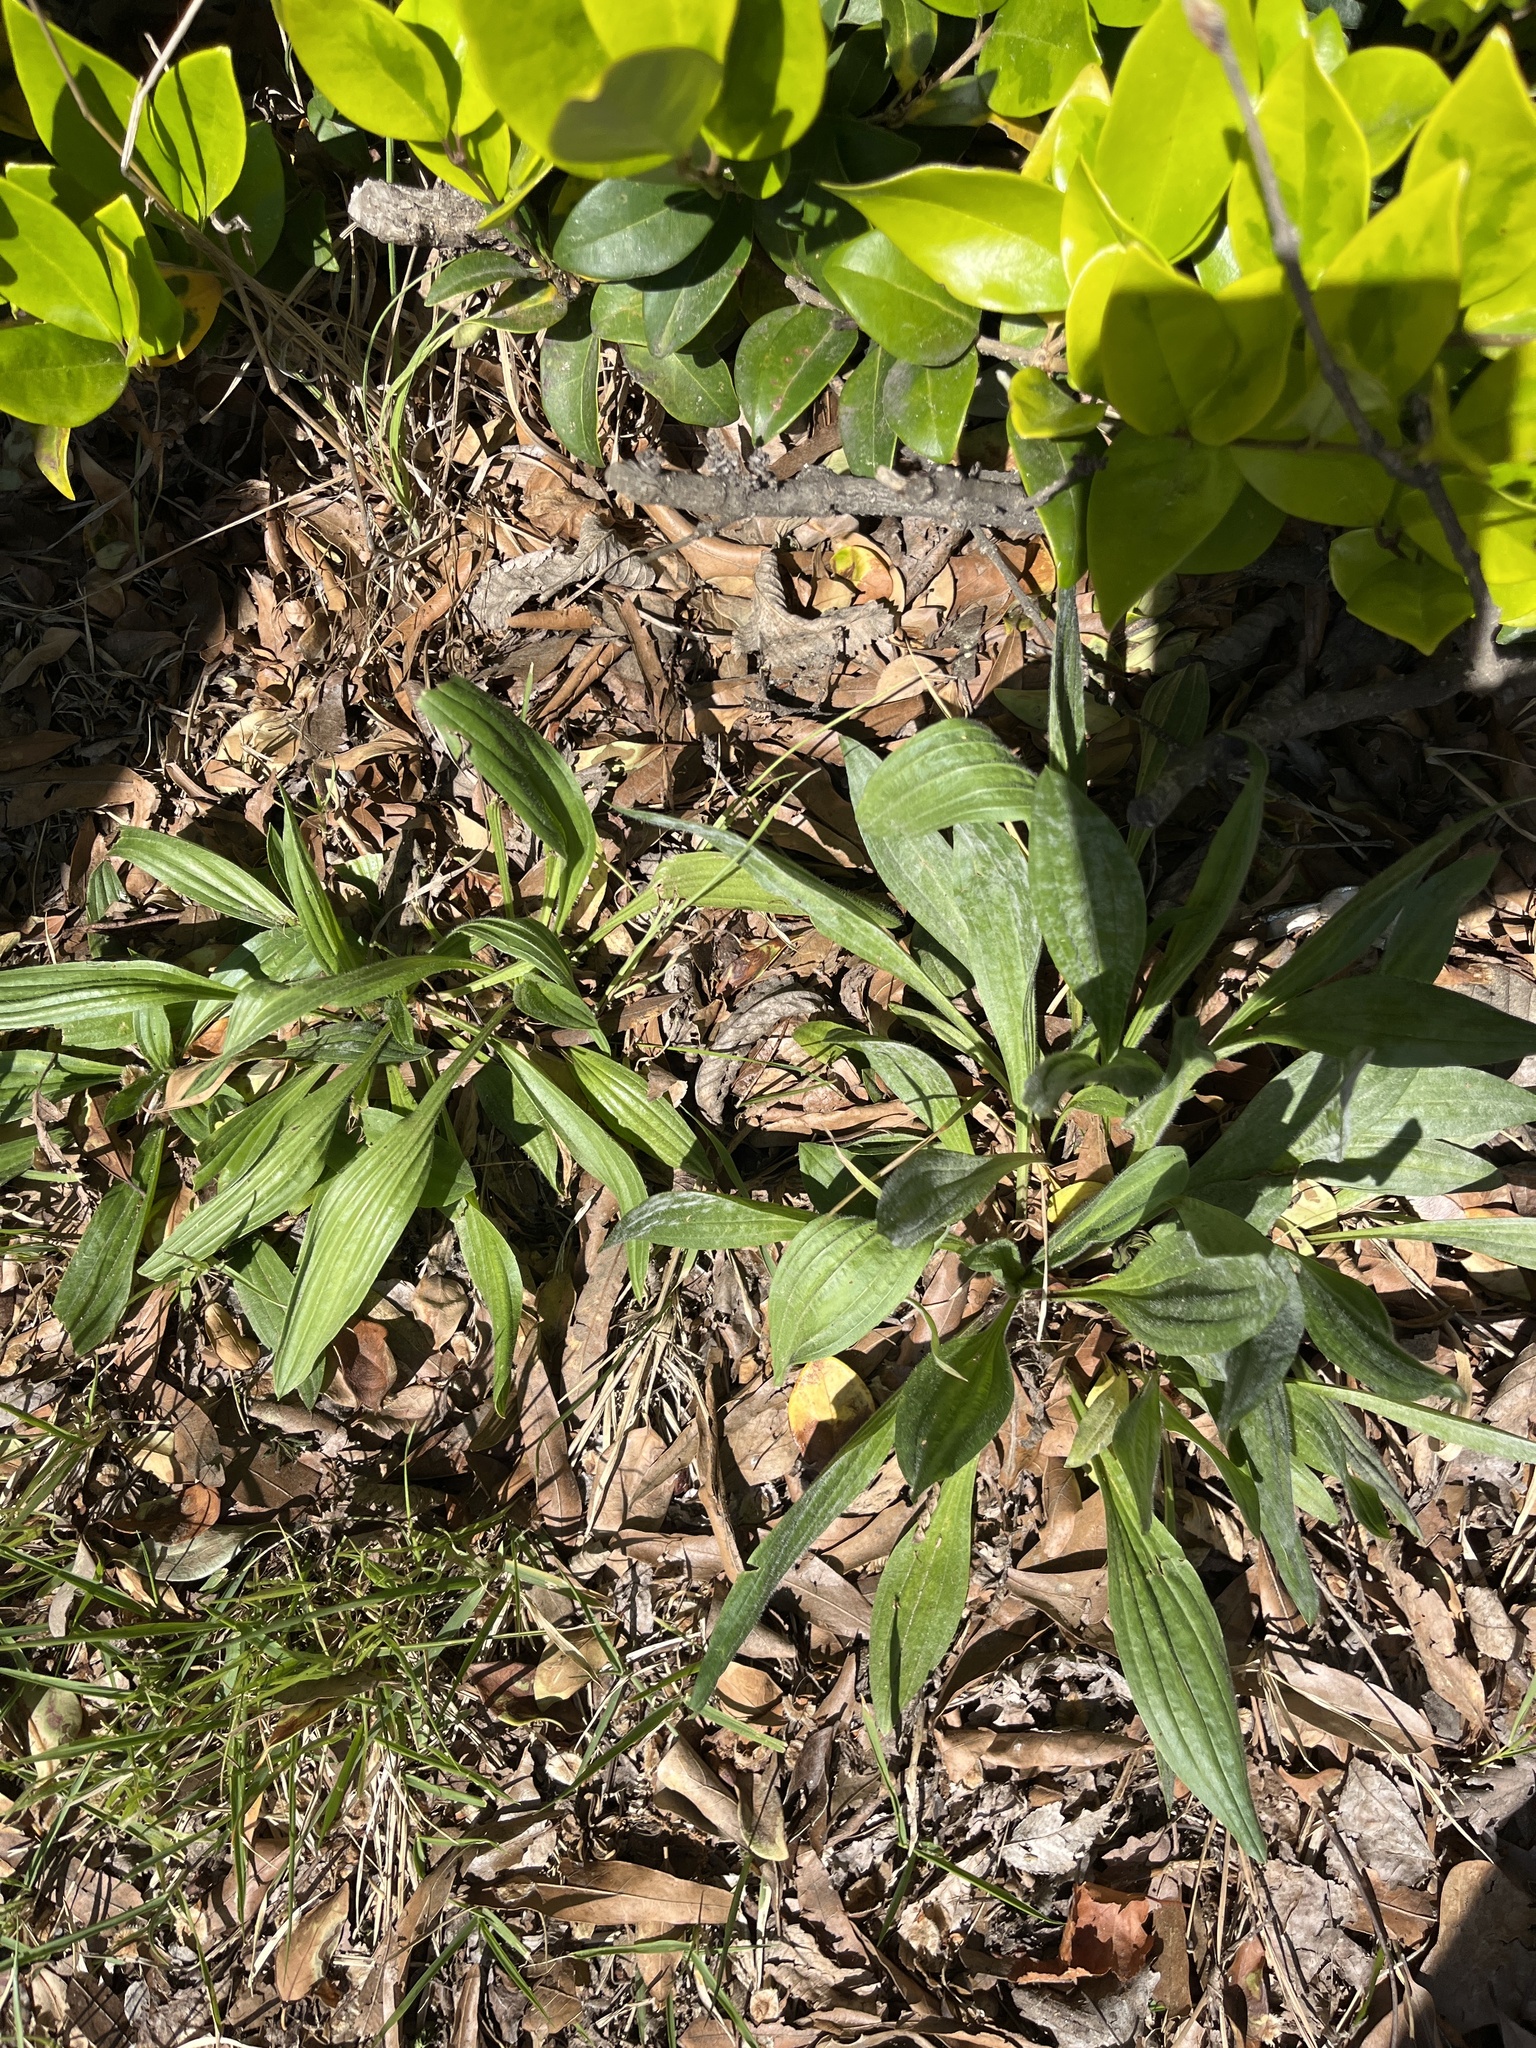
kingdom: Plantae
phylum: Tracheophyta
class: Magnoliopsida
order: Lamiales
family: Plantaginaceae
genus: Plantago
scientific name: Plantago lanceolata
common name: Ribwort plantain
